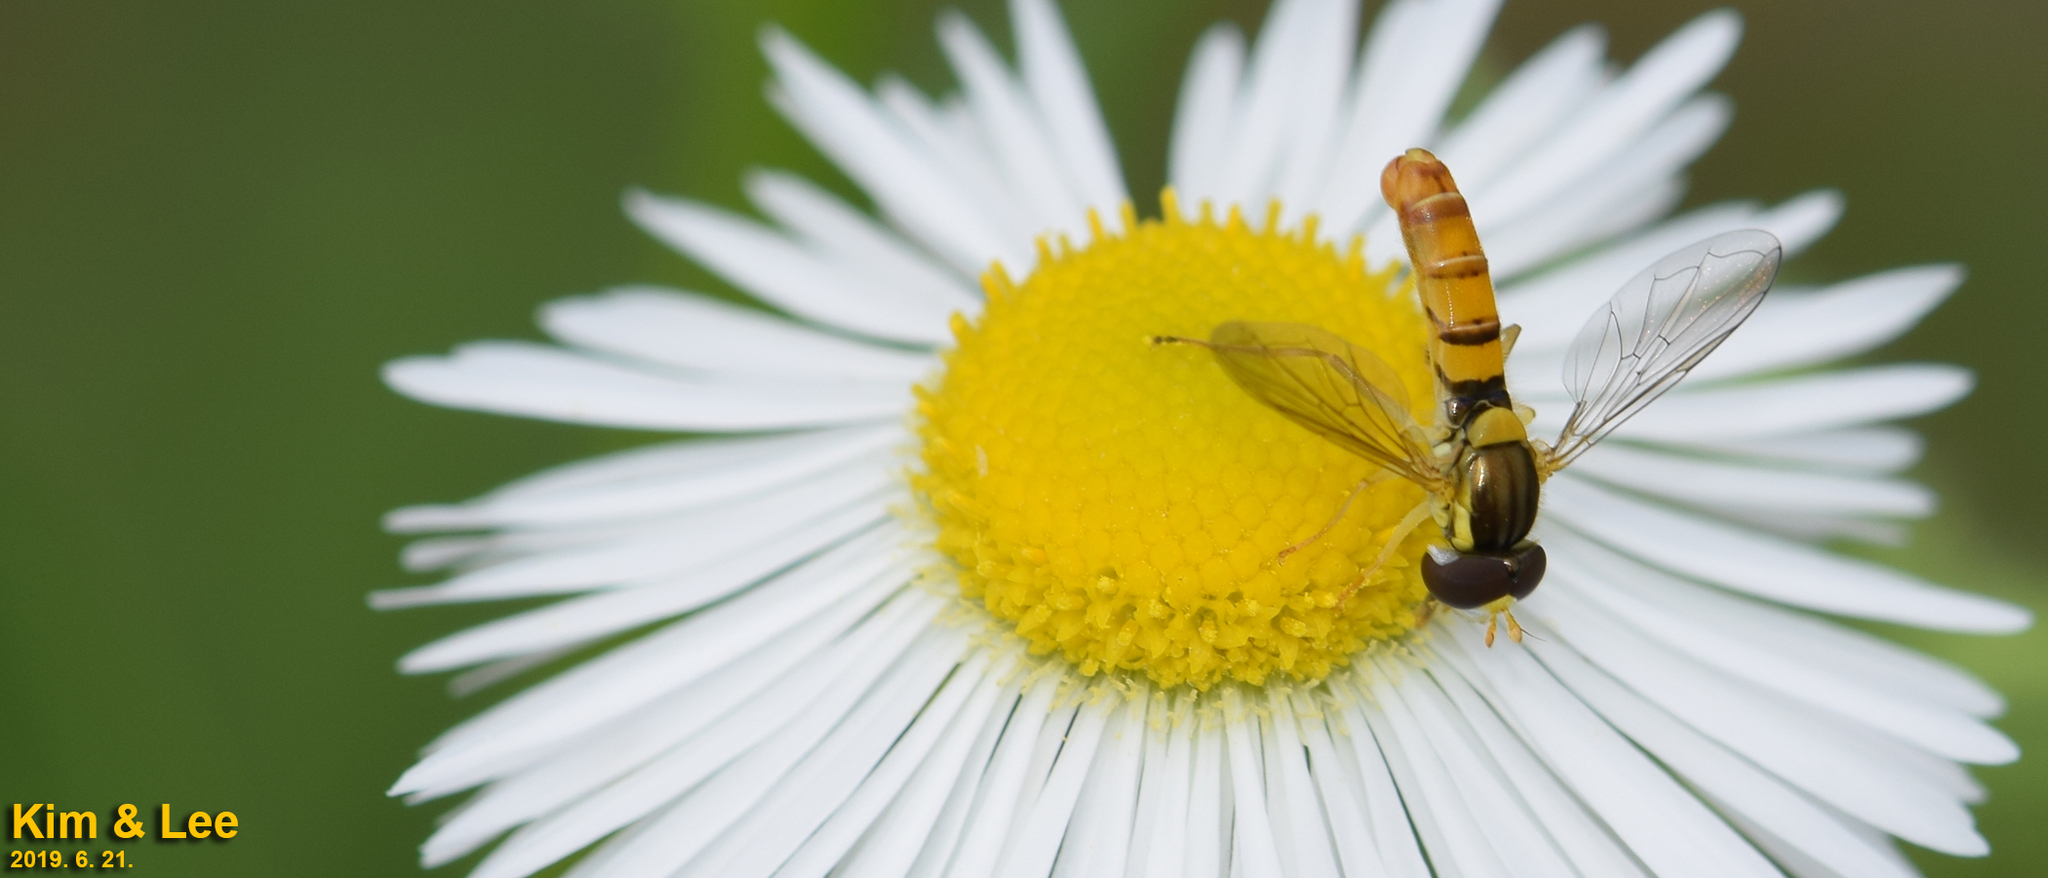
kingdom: Animalia
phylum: Arthropoda
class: Insecta
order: Diptera
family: Syrphidae
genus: Sphaerophoria
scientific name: Sphaerophoria scripta
